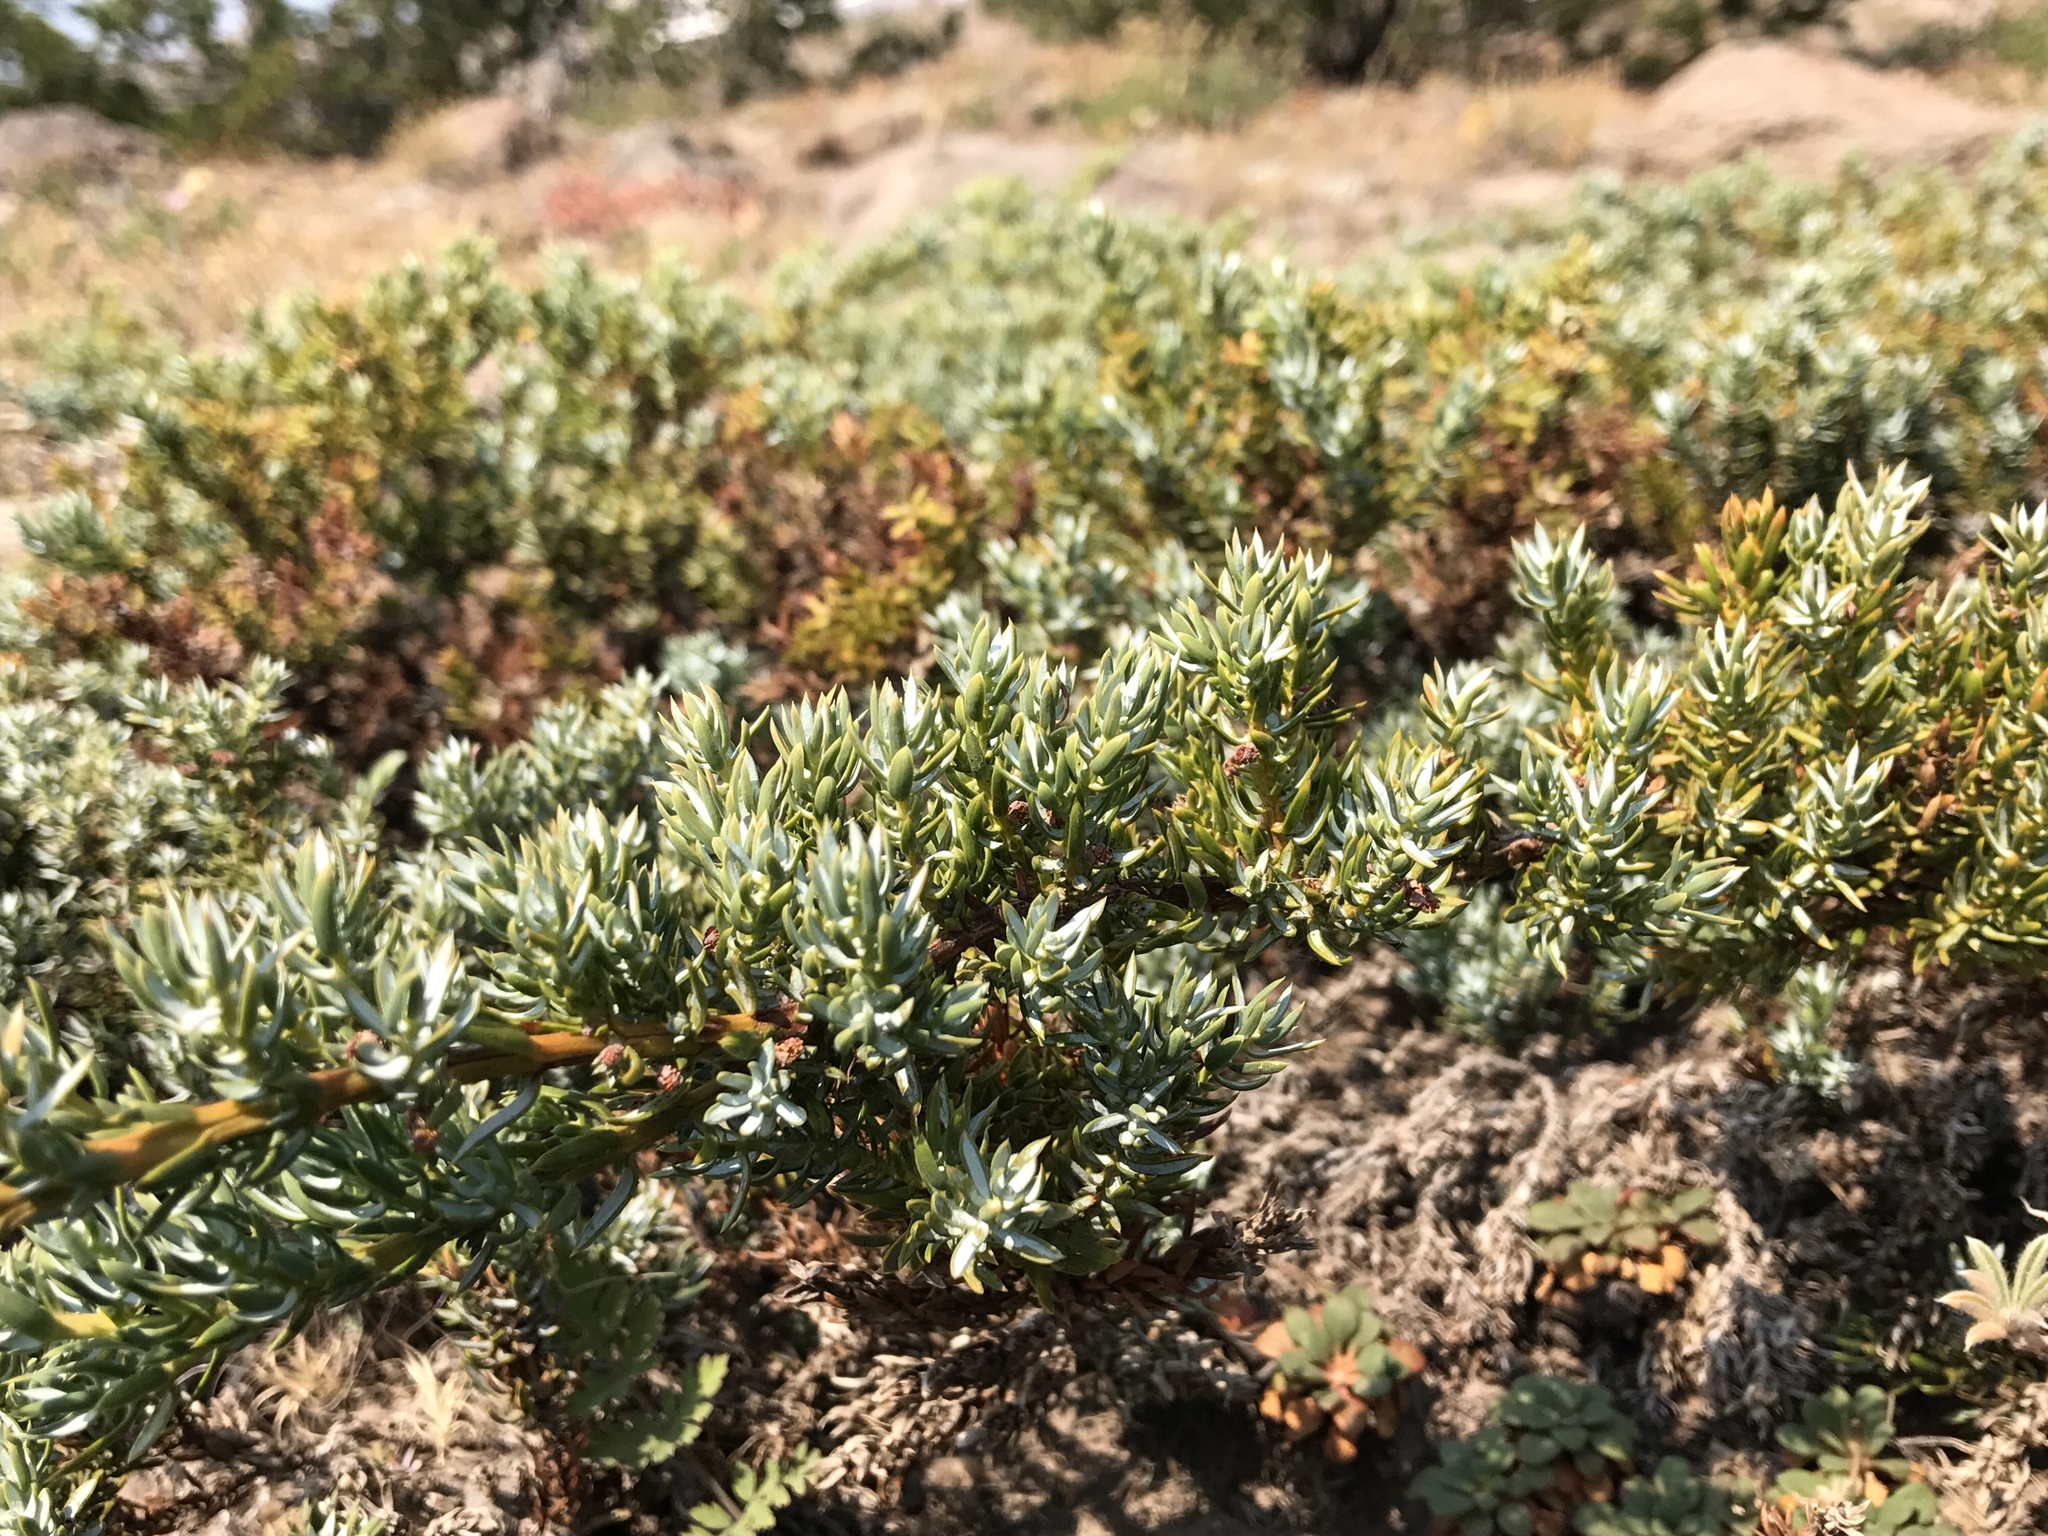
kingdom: Plantae
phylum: Tracheophyta
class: Pinopsida
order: Pinales
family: Cupressaceae
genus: Juniperus
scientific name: Juniperus communis
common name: Common juniper
